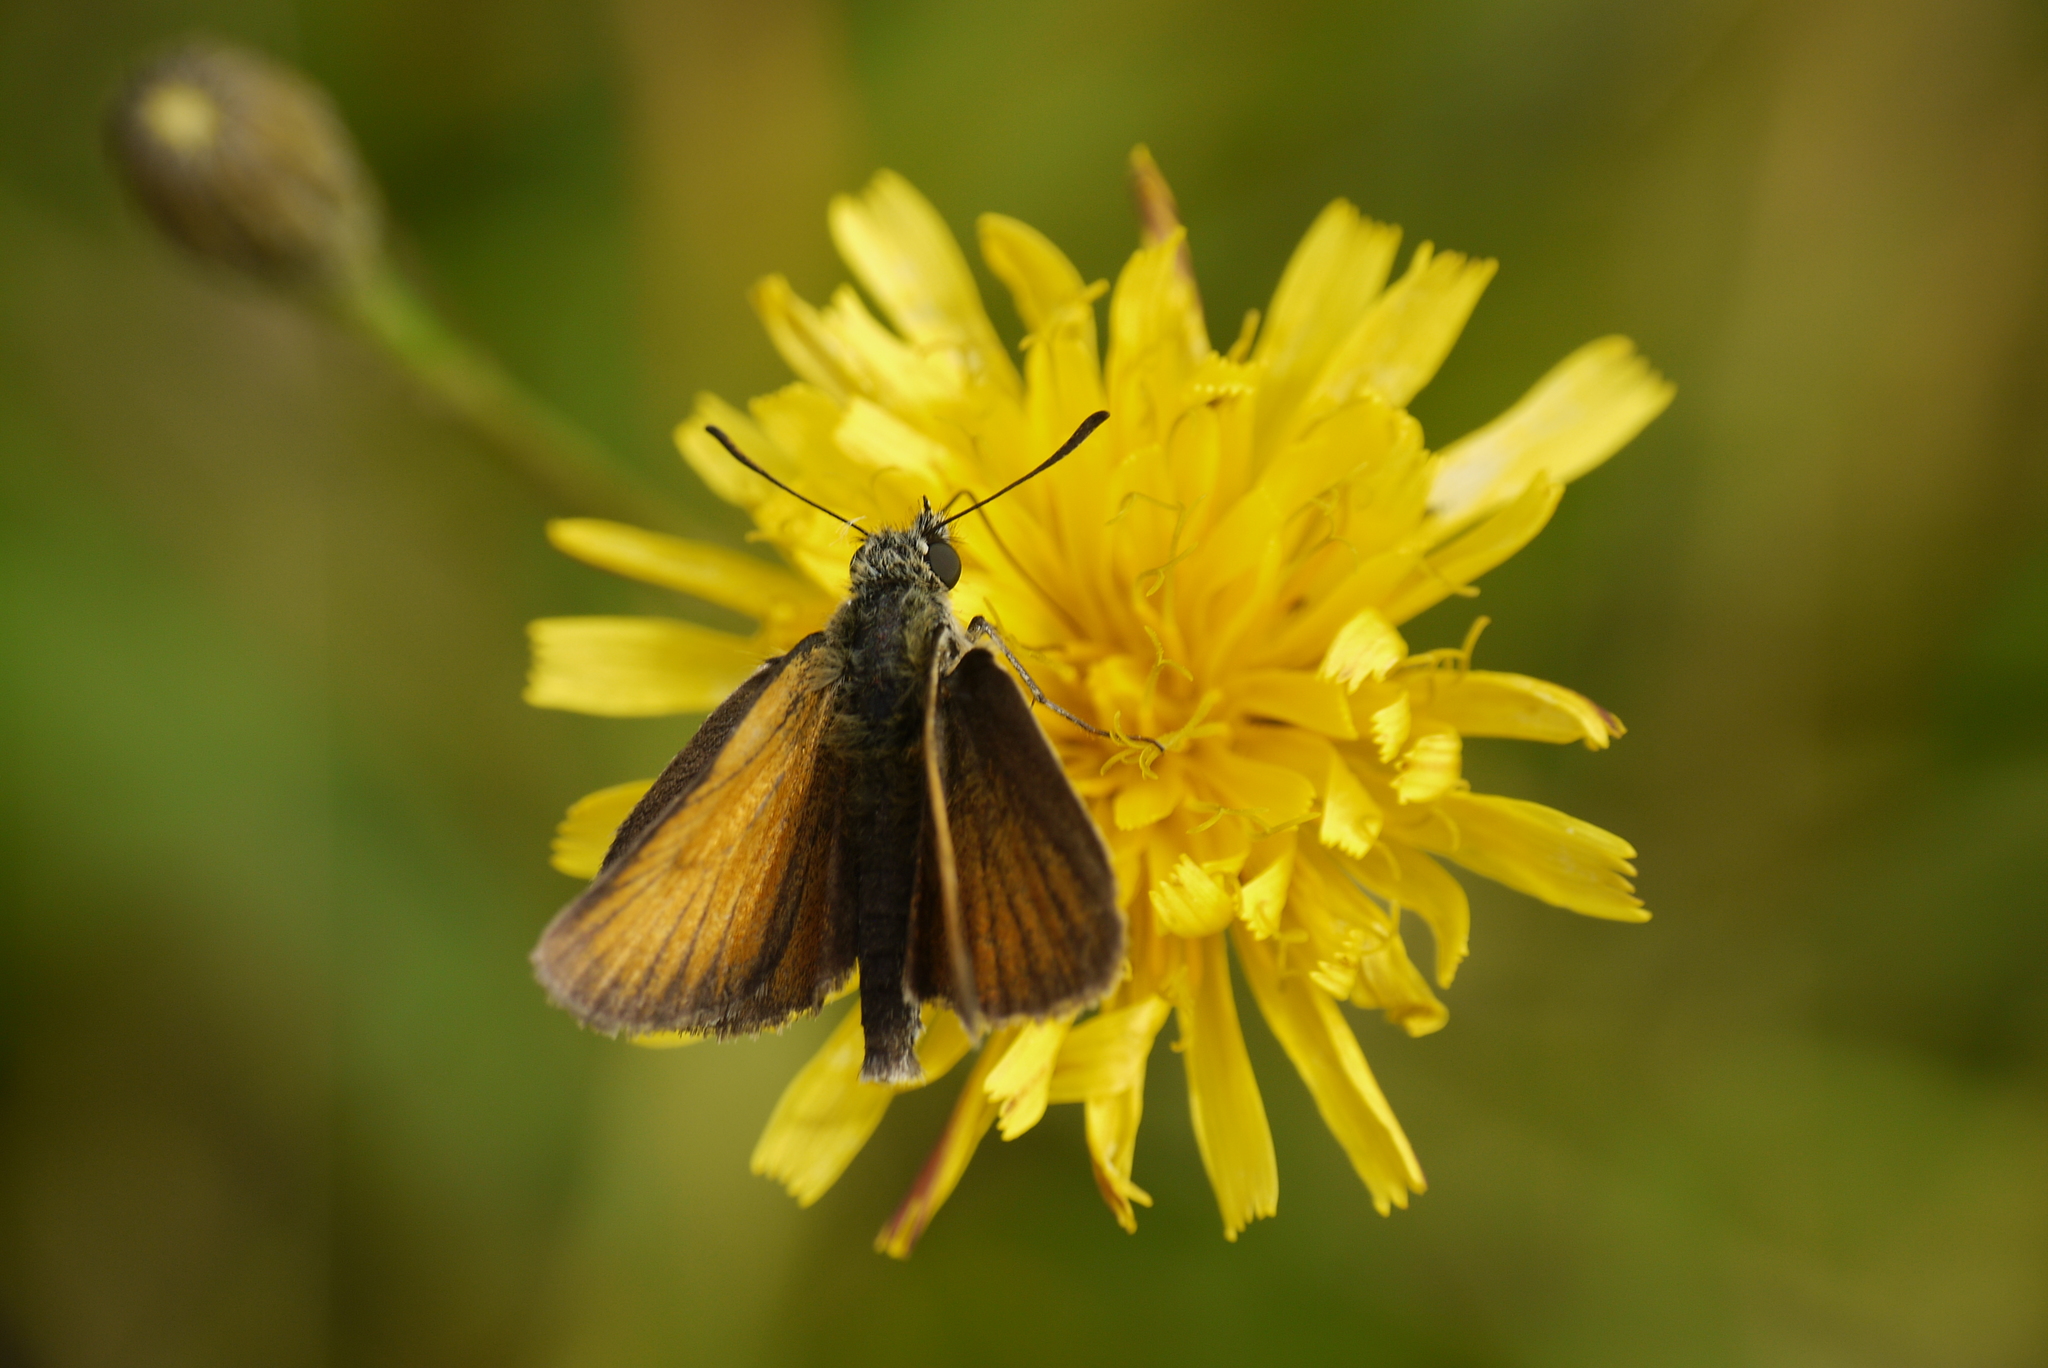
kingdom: Animalia
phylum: Arthropoda
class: Insecta
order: Lepidoptera
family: Hesperiidae
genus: Thymelicus
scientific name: Thymelicus lineola
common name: Essex skipper
